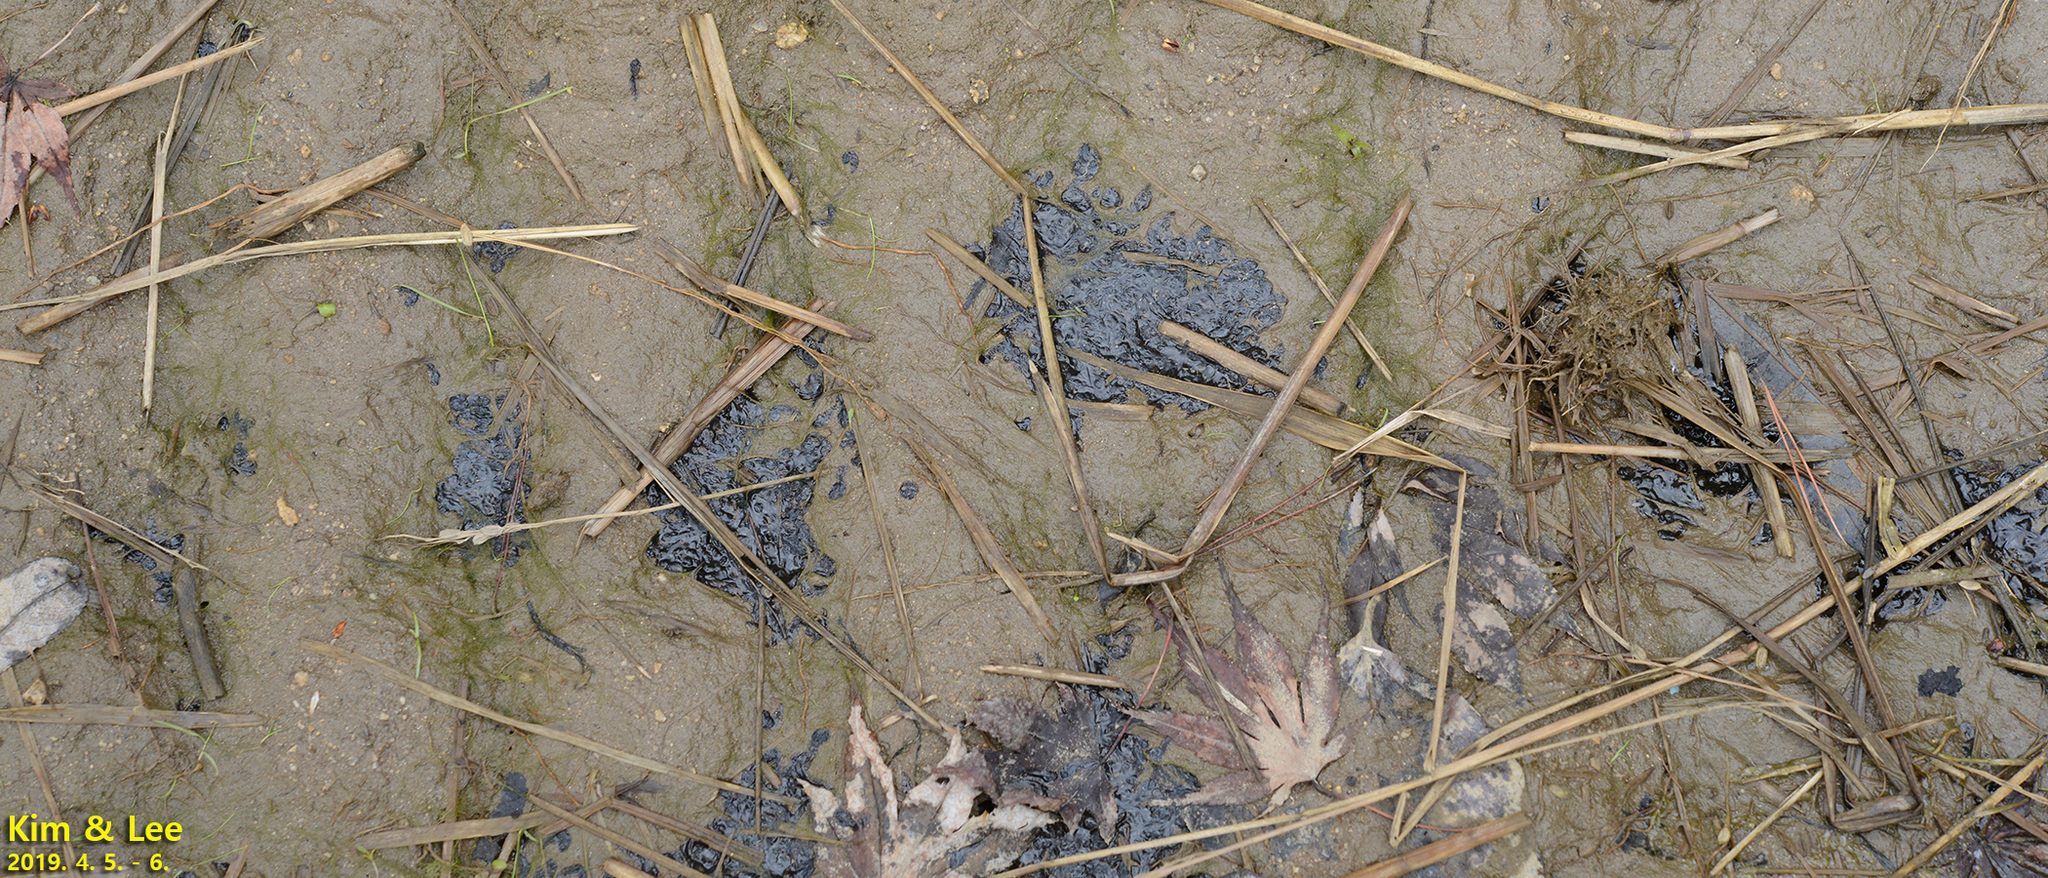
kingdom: Animalia
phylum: Chordata
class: Amphibia
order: Anura
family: Ranidae
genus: Rana
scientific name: Rana uenoi
